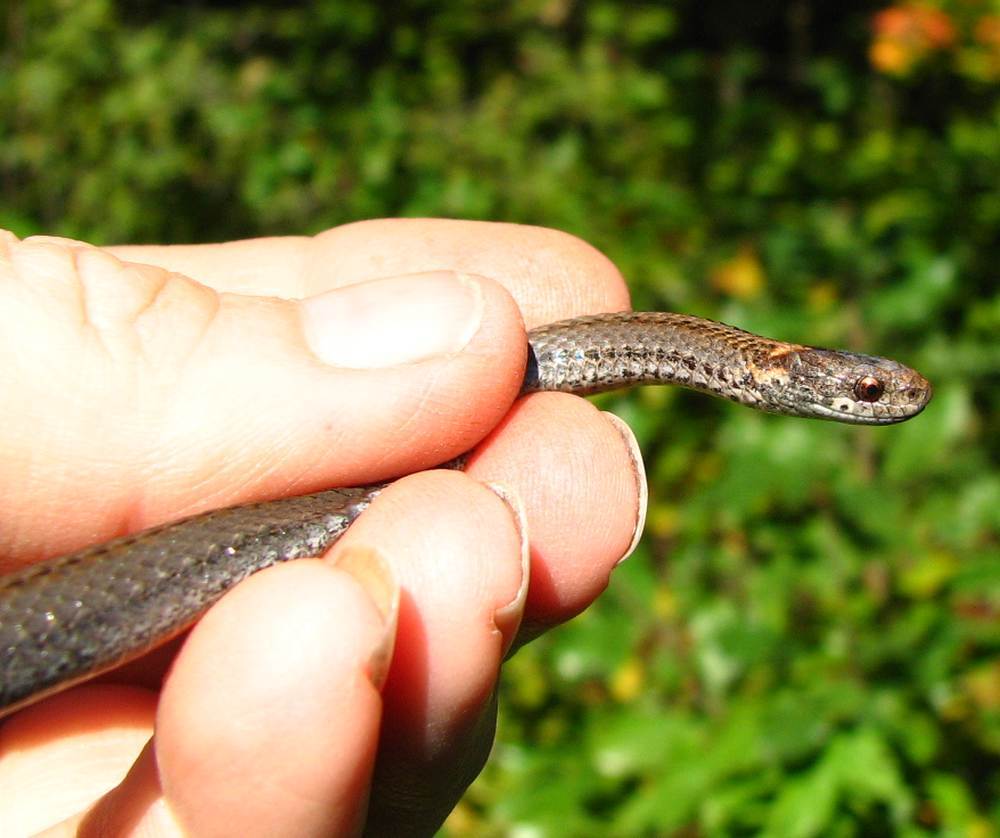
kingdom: Animalia
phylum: Chordata
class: Squamata
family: Colubridae
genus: Storeria
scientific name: Storeria occipitomaculata
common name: Redbelly snake
